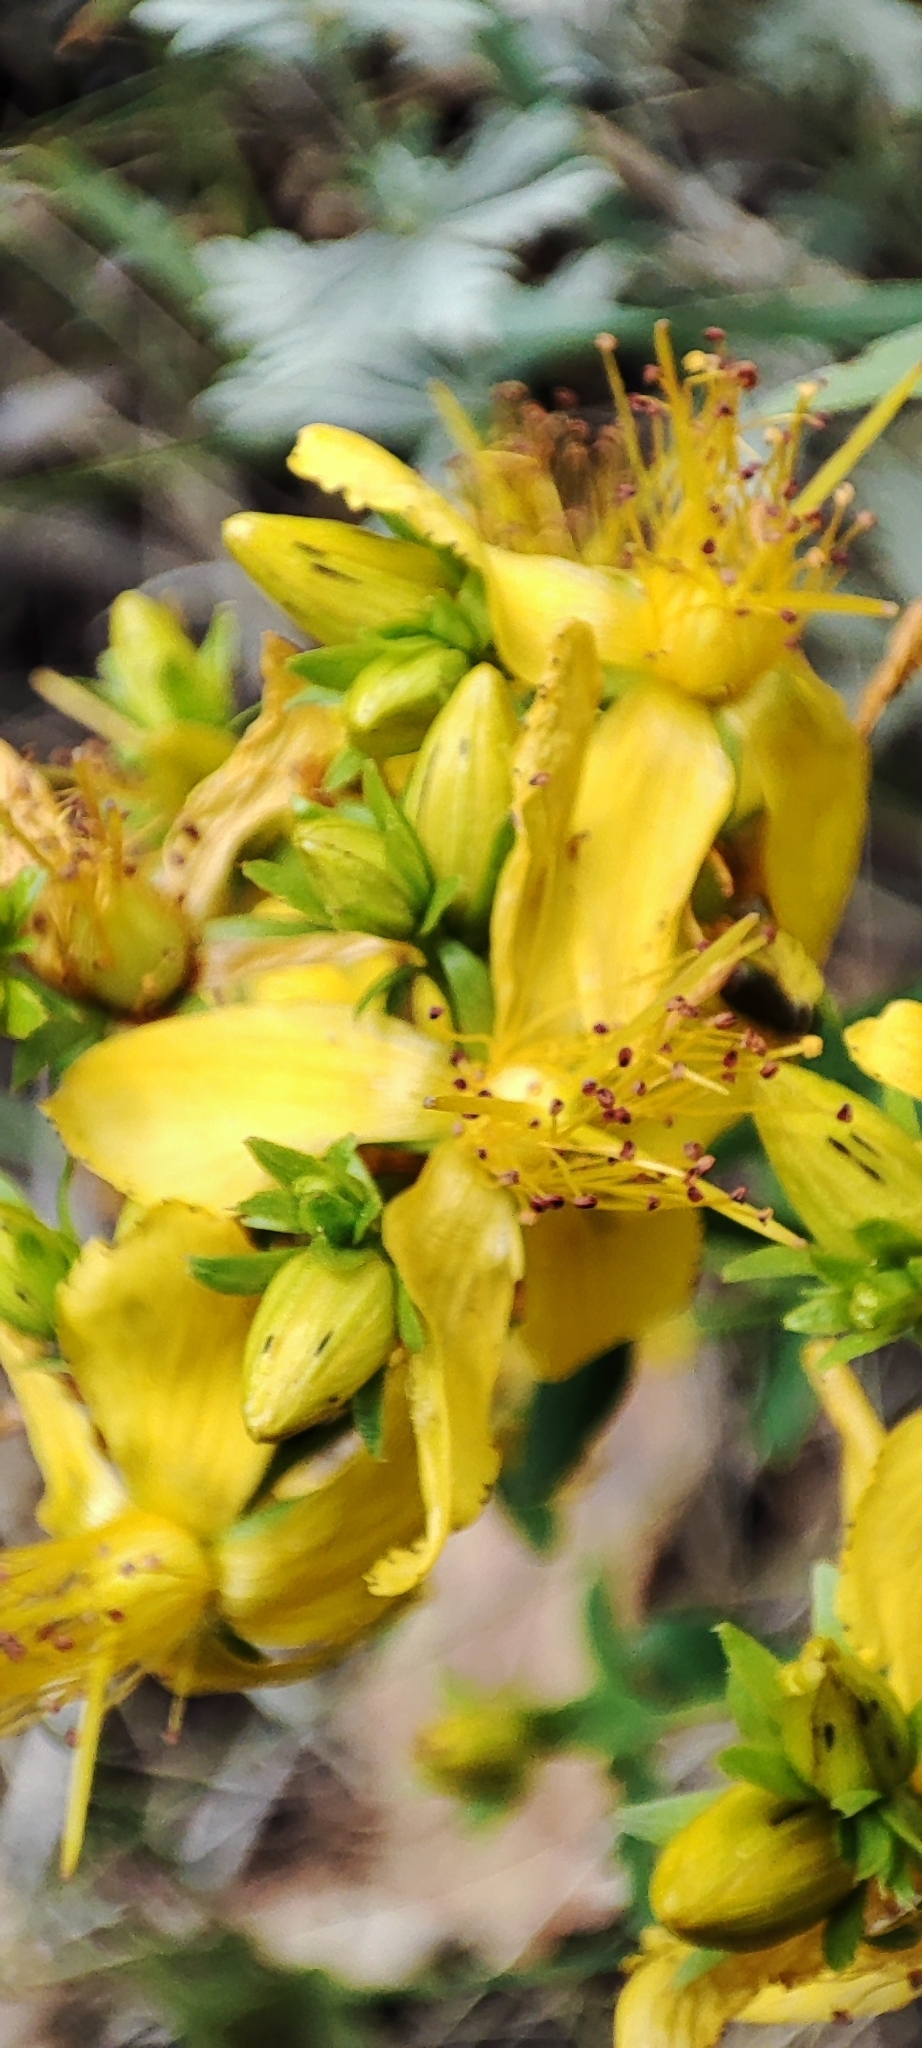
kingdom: Plantae
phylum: Tracheophyta
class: Magnoliopsida
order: Malpighiales
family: Hypericaceae
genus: Hypericum
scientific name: Hypericum perforatum
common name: Common st. johnswort
